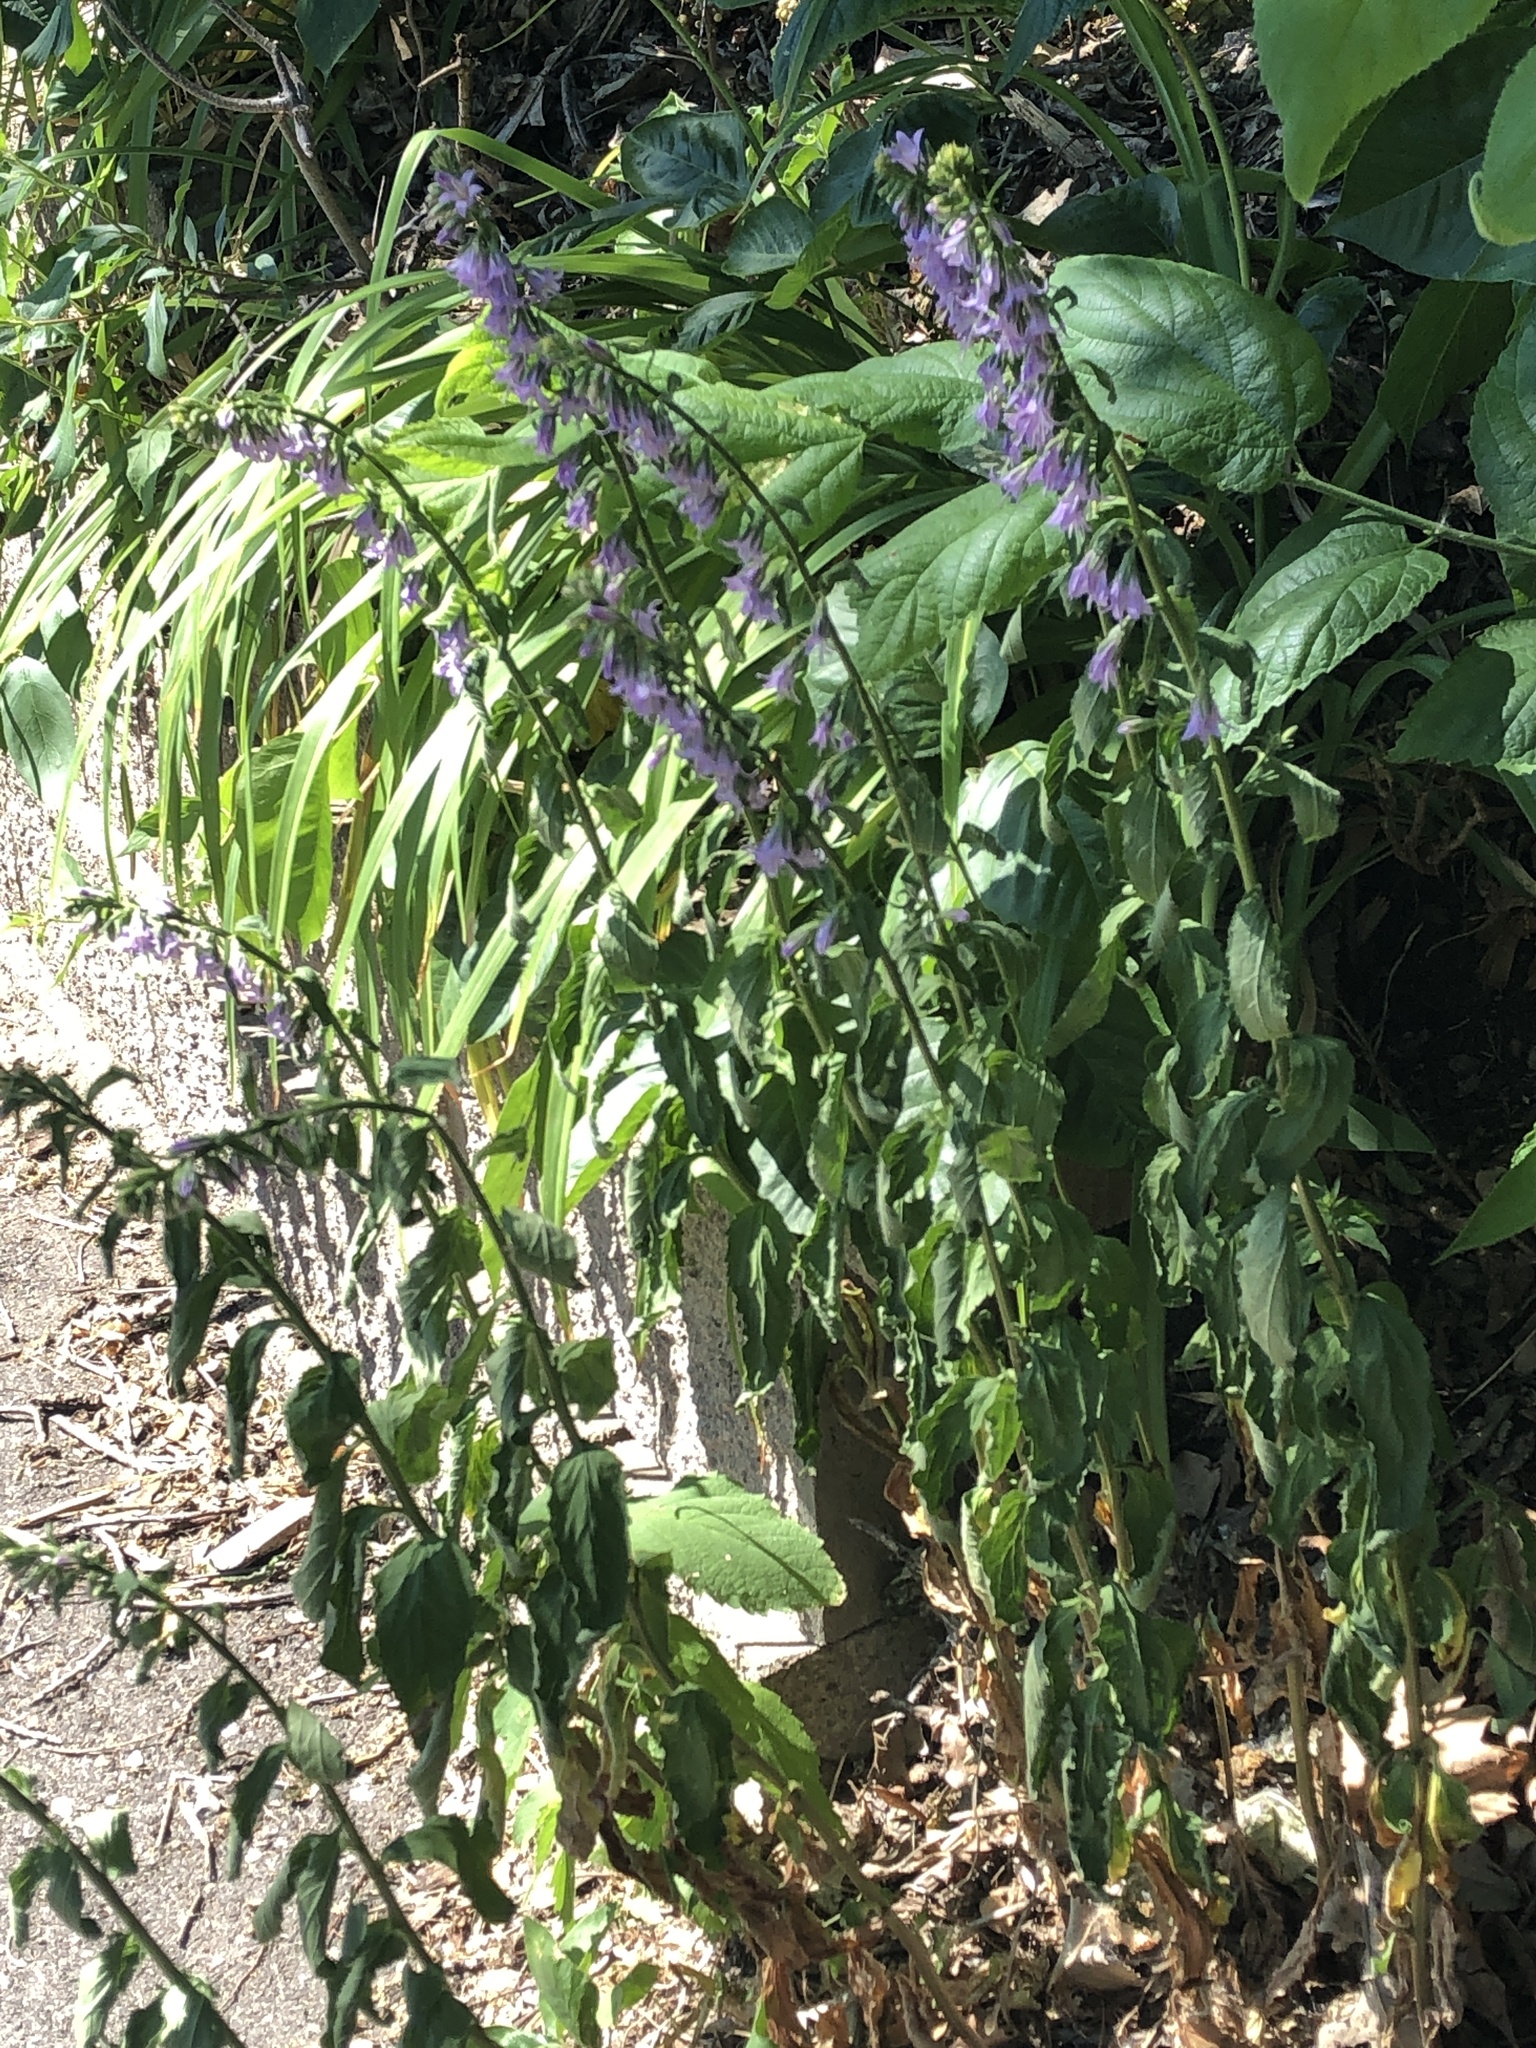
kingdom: Plantae
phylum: Tracheophyta
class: Magnoliopsida
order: Asterales
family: Campanulaceae
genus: Campanula
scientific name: Campanula rapunculoides
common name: Creeping bellflower
